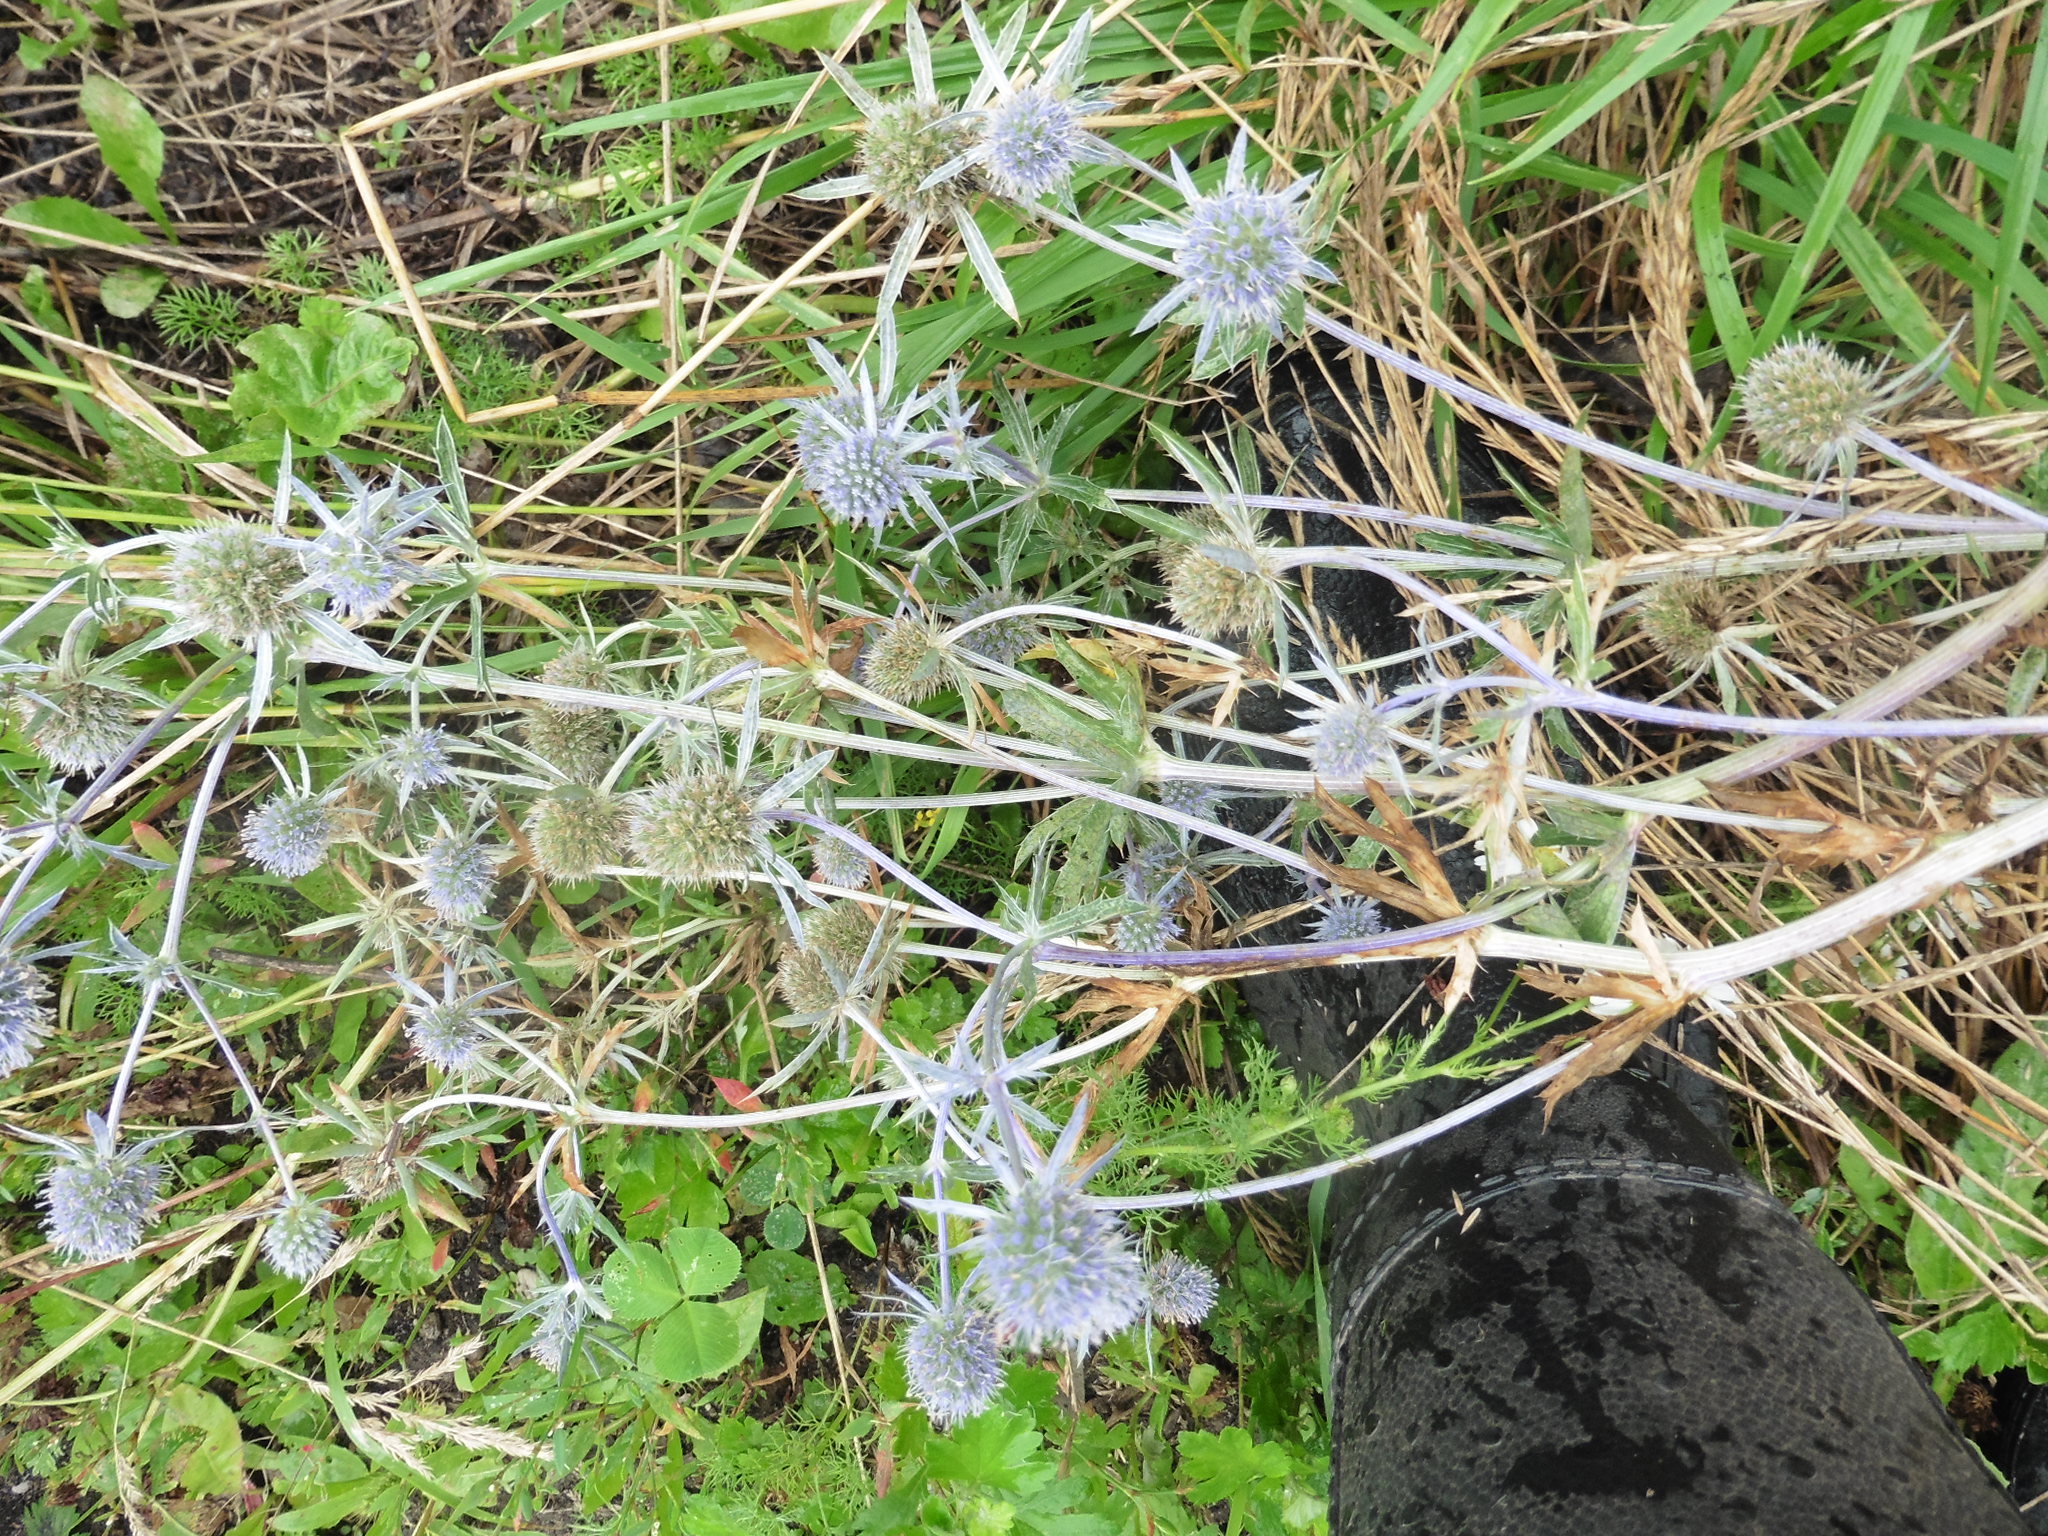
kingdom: Plantae
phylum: Tracheophyta
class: Magnoliopsida
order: Apiales
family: Apiaceae
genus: Eryngium
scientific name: Eryngium planum
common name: Blue eryngo
